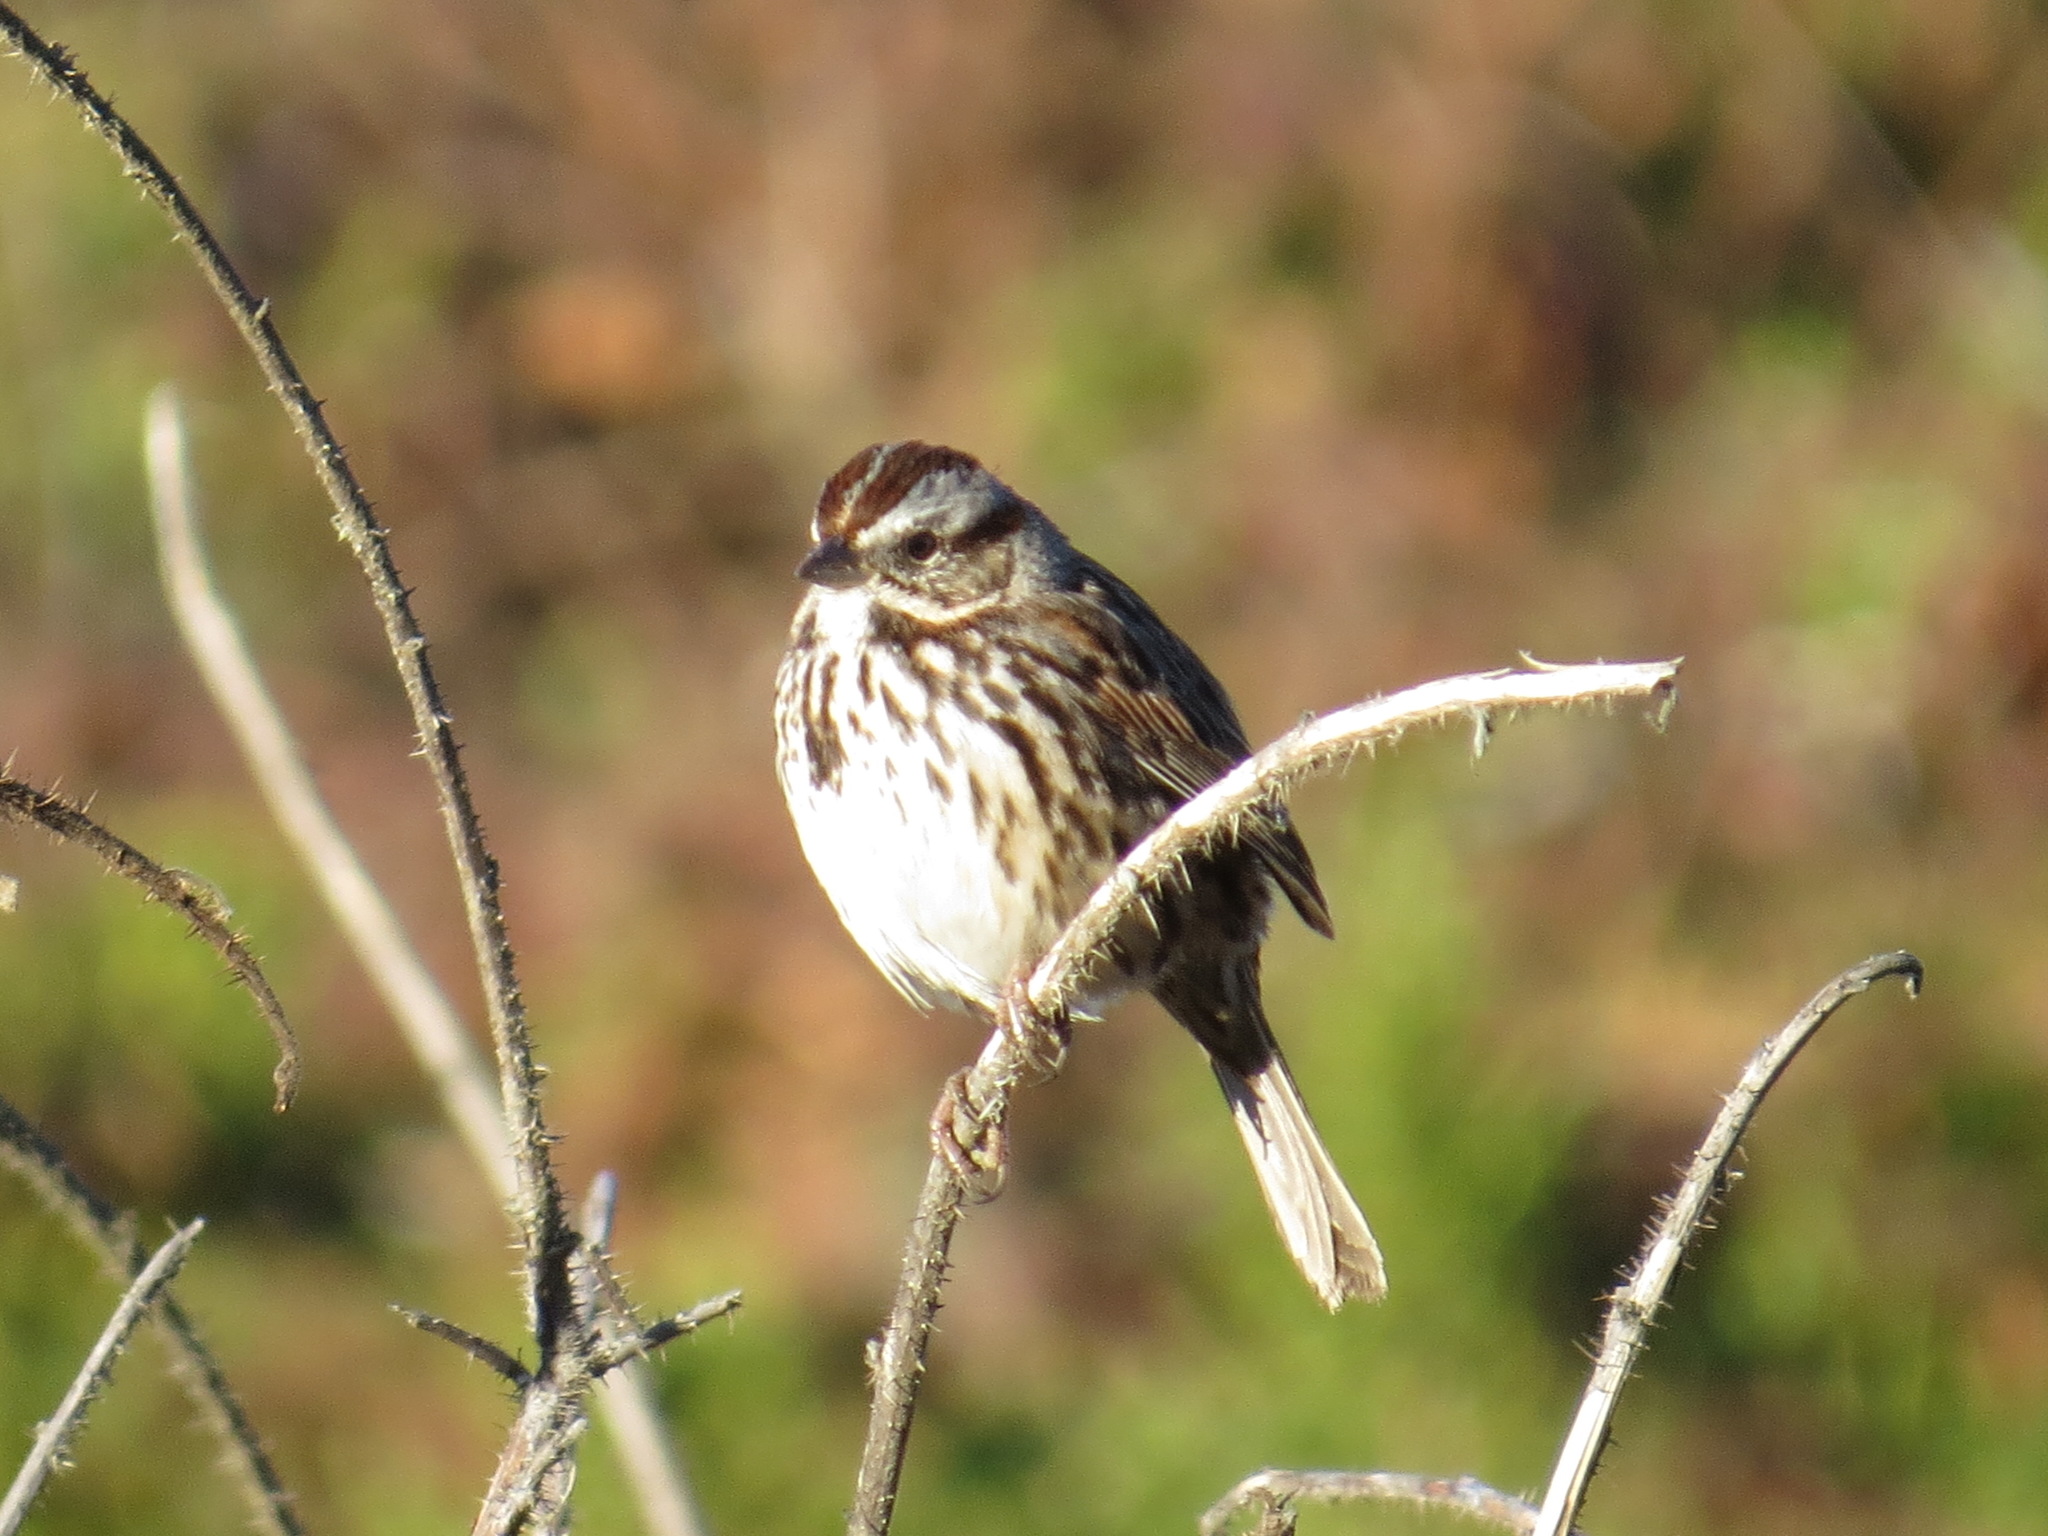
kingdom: Animalia
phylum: Chordata
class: Aves
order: Passeriformes
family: Passerellidae
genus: Melospiza
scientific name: Melospiza melodia
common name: Song sparrow
